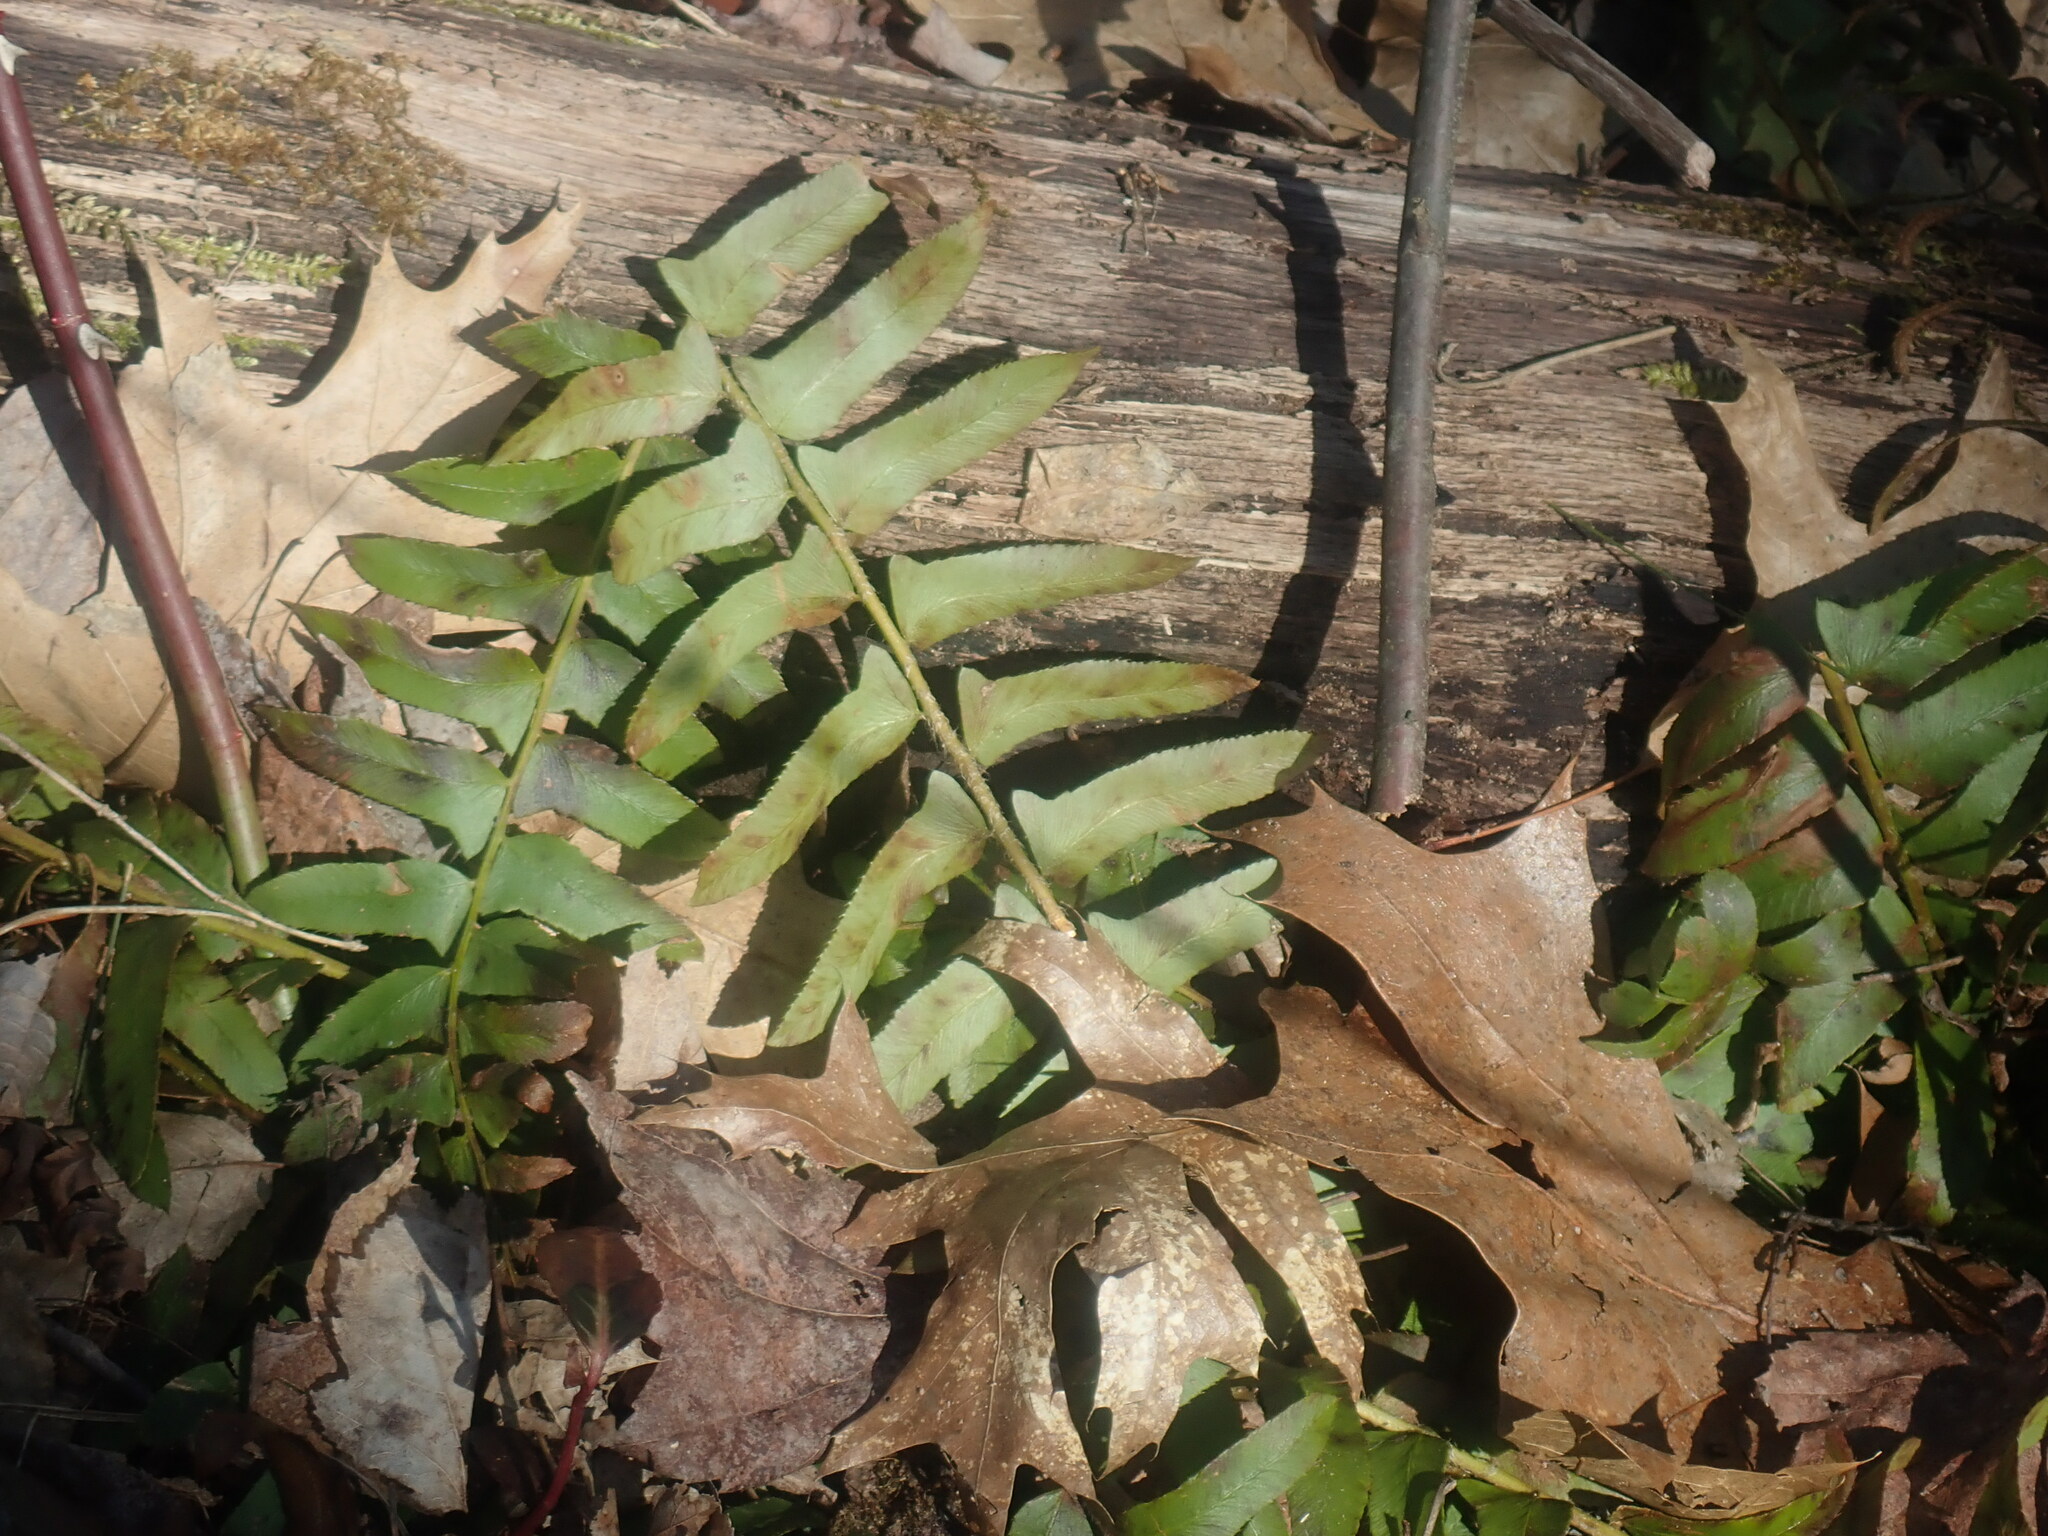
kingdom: Plantae
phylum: Tracheophyta
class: Polypodiopsida
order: Polypodiales
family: Dryopteridaceae
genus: Polystichum
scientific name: Polystichum acrostichoides
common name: Christmas fern
